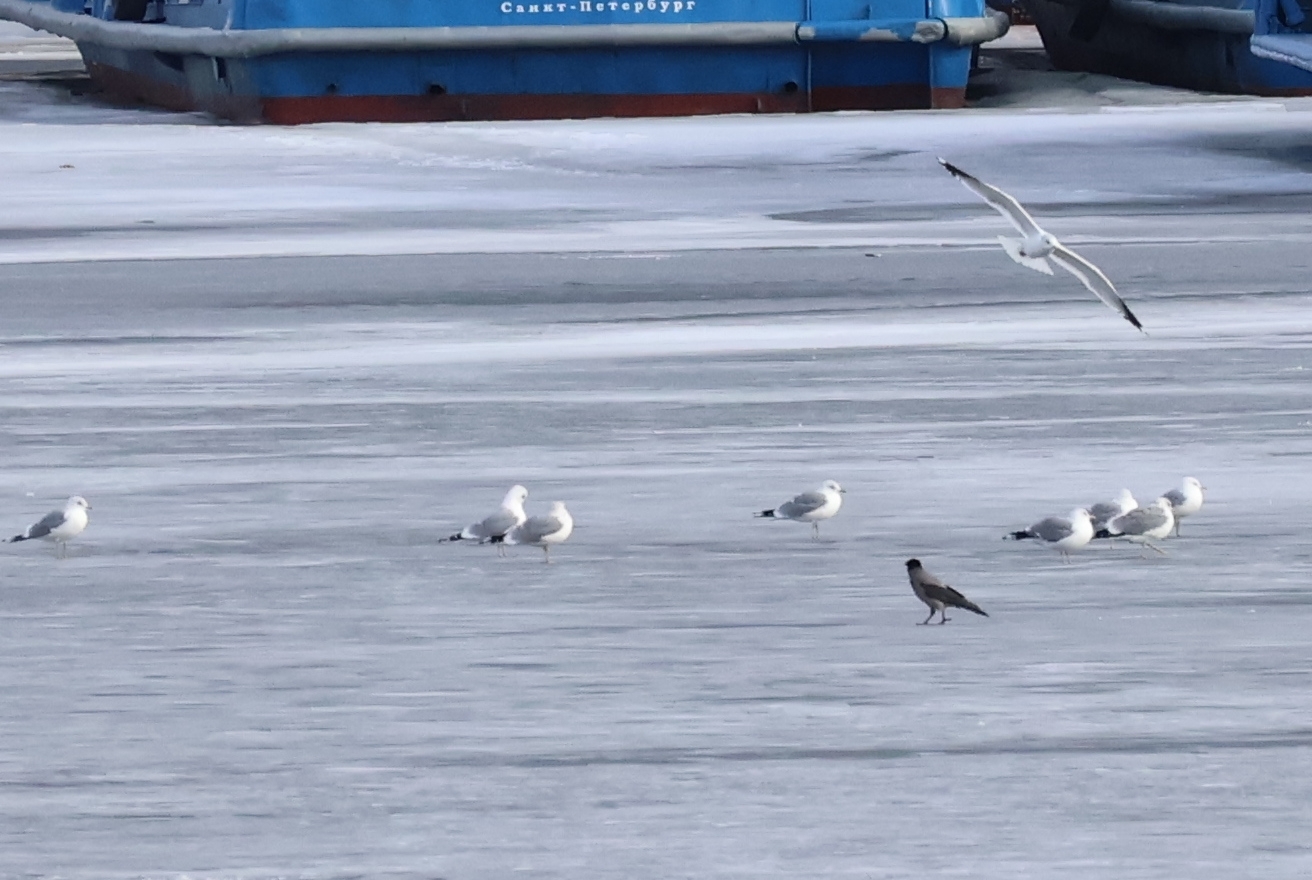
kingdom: Animalia
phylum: Chordata
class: Aves
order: Passeriformes
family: Corvidae
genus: Corvus
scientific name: Corvus cornix
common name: Hooded crow
